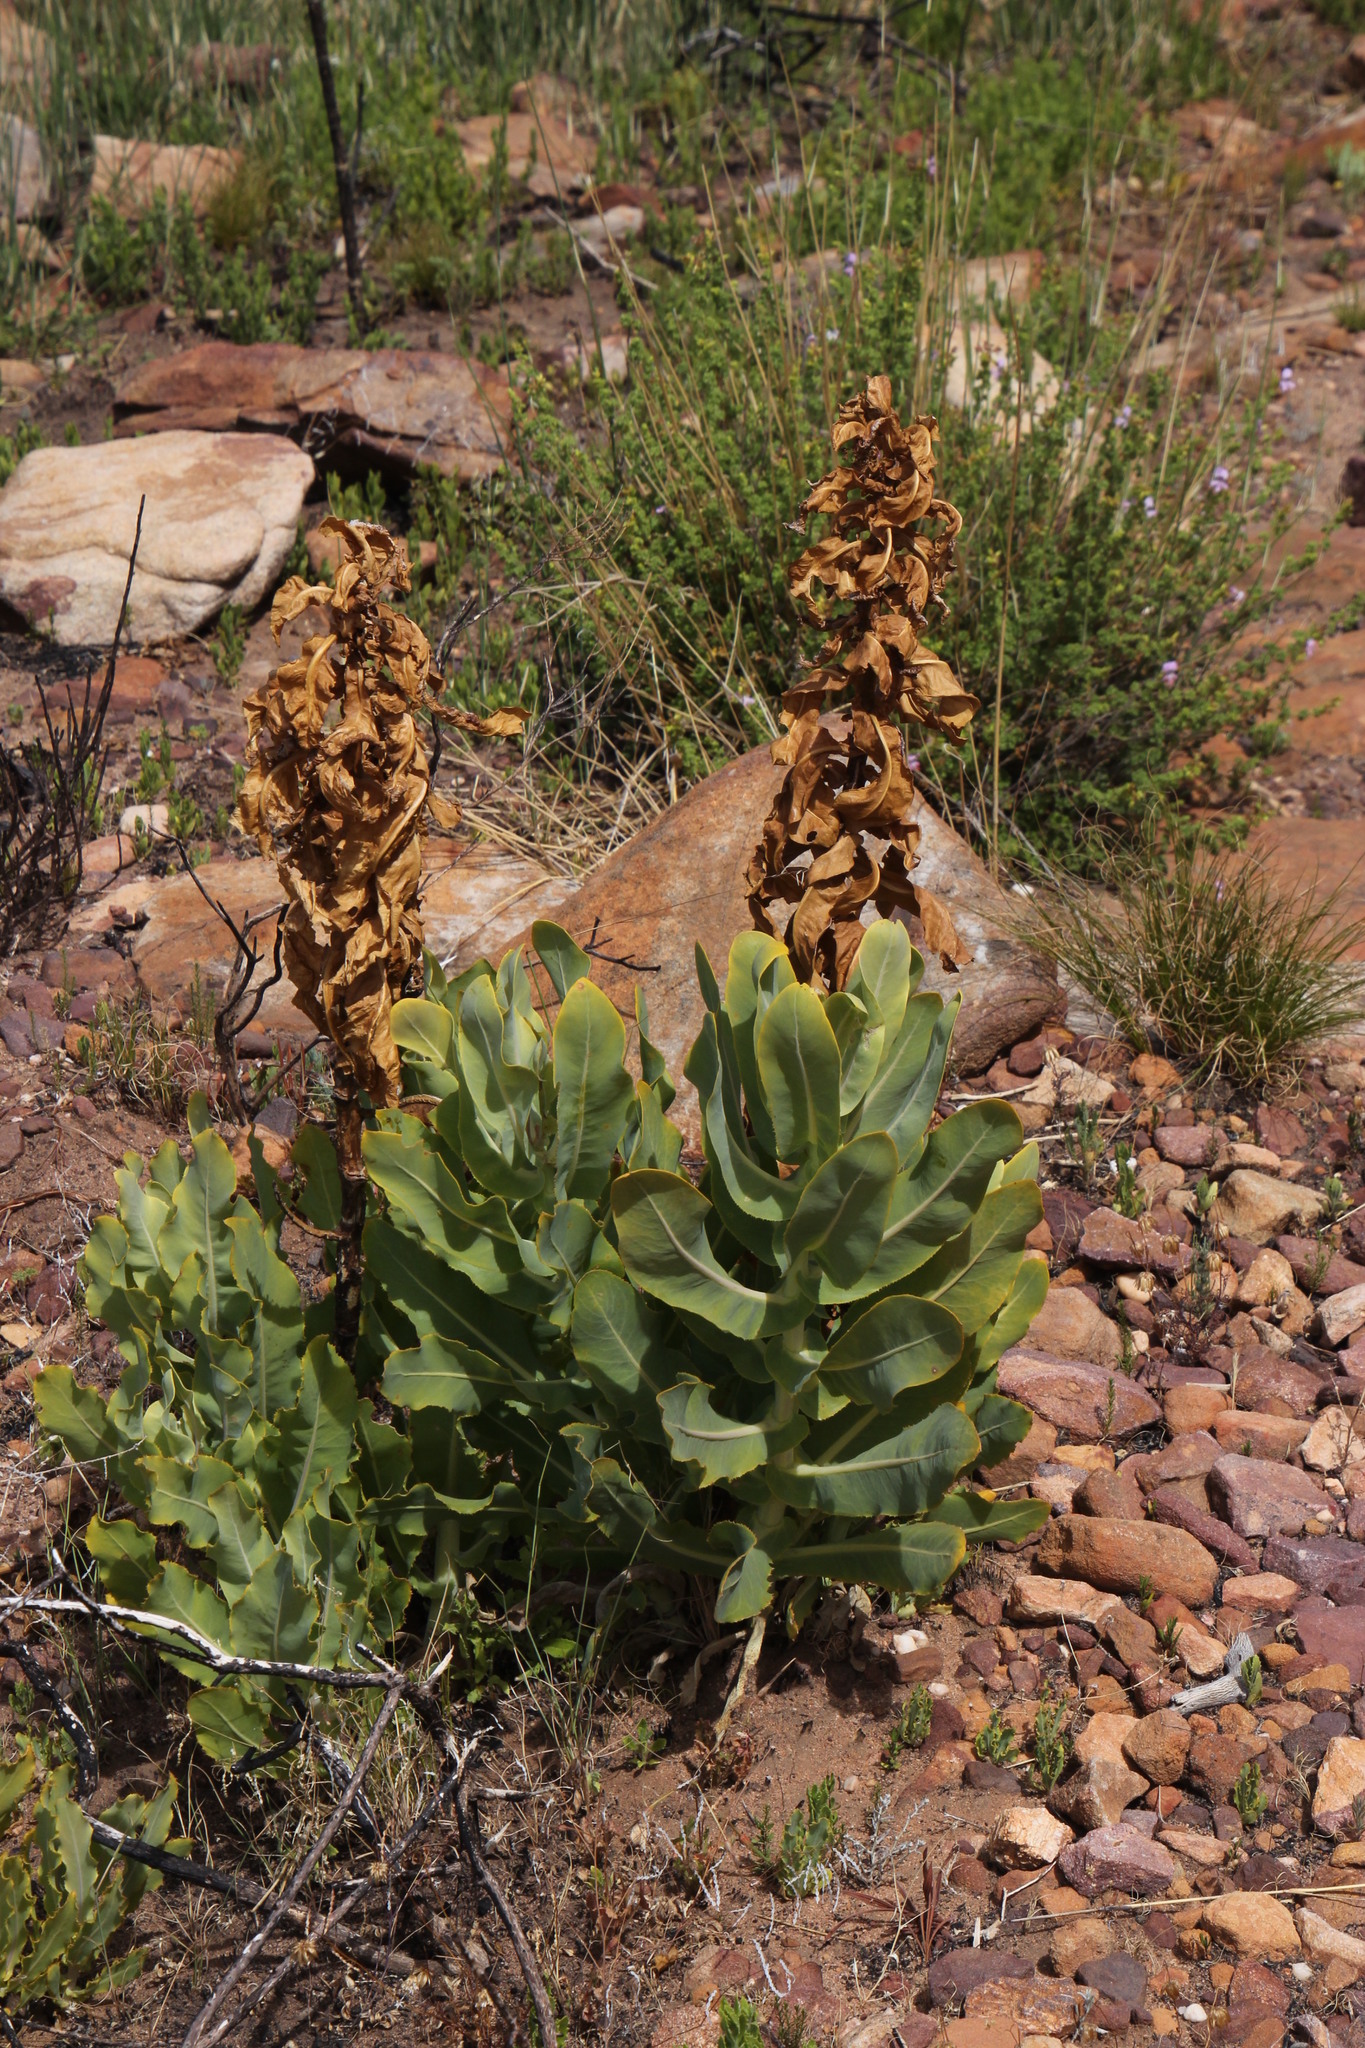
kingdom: Plantae
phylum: Tracheophyta
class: Magnoliopsida
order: Asterales
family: Asteraceae
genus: Othonna
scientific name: Othonna parviflora
